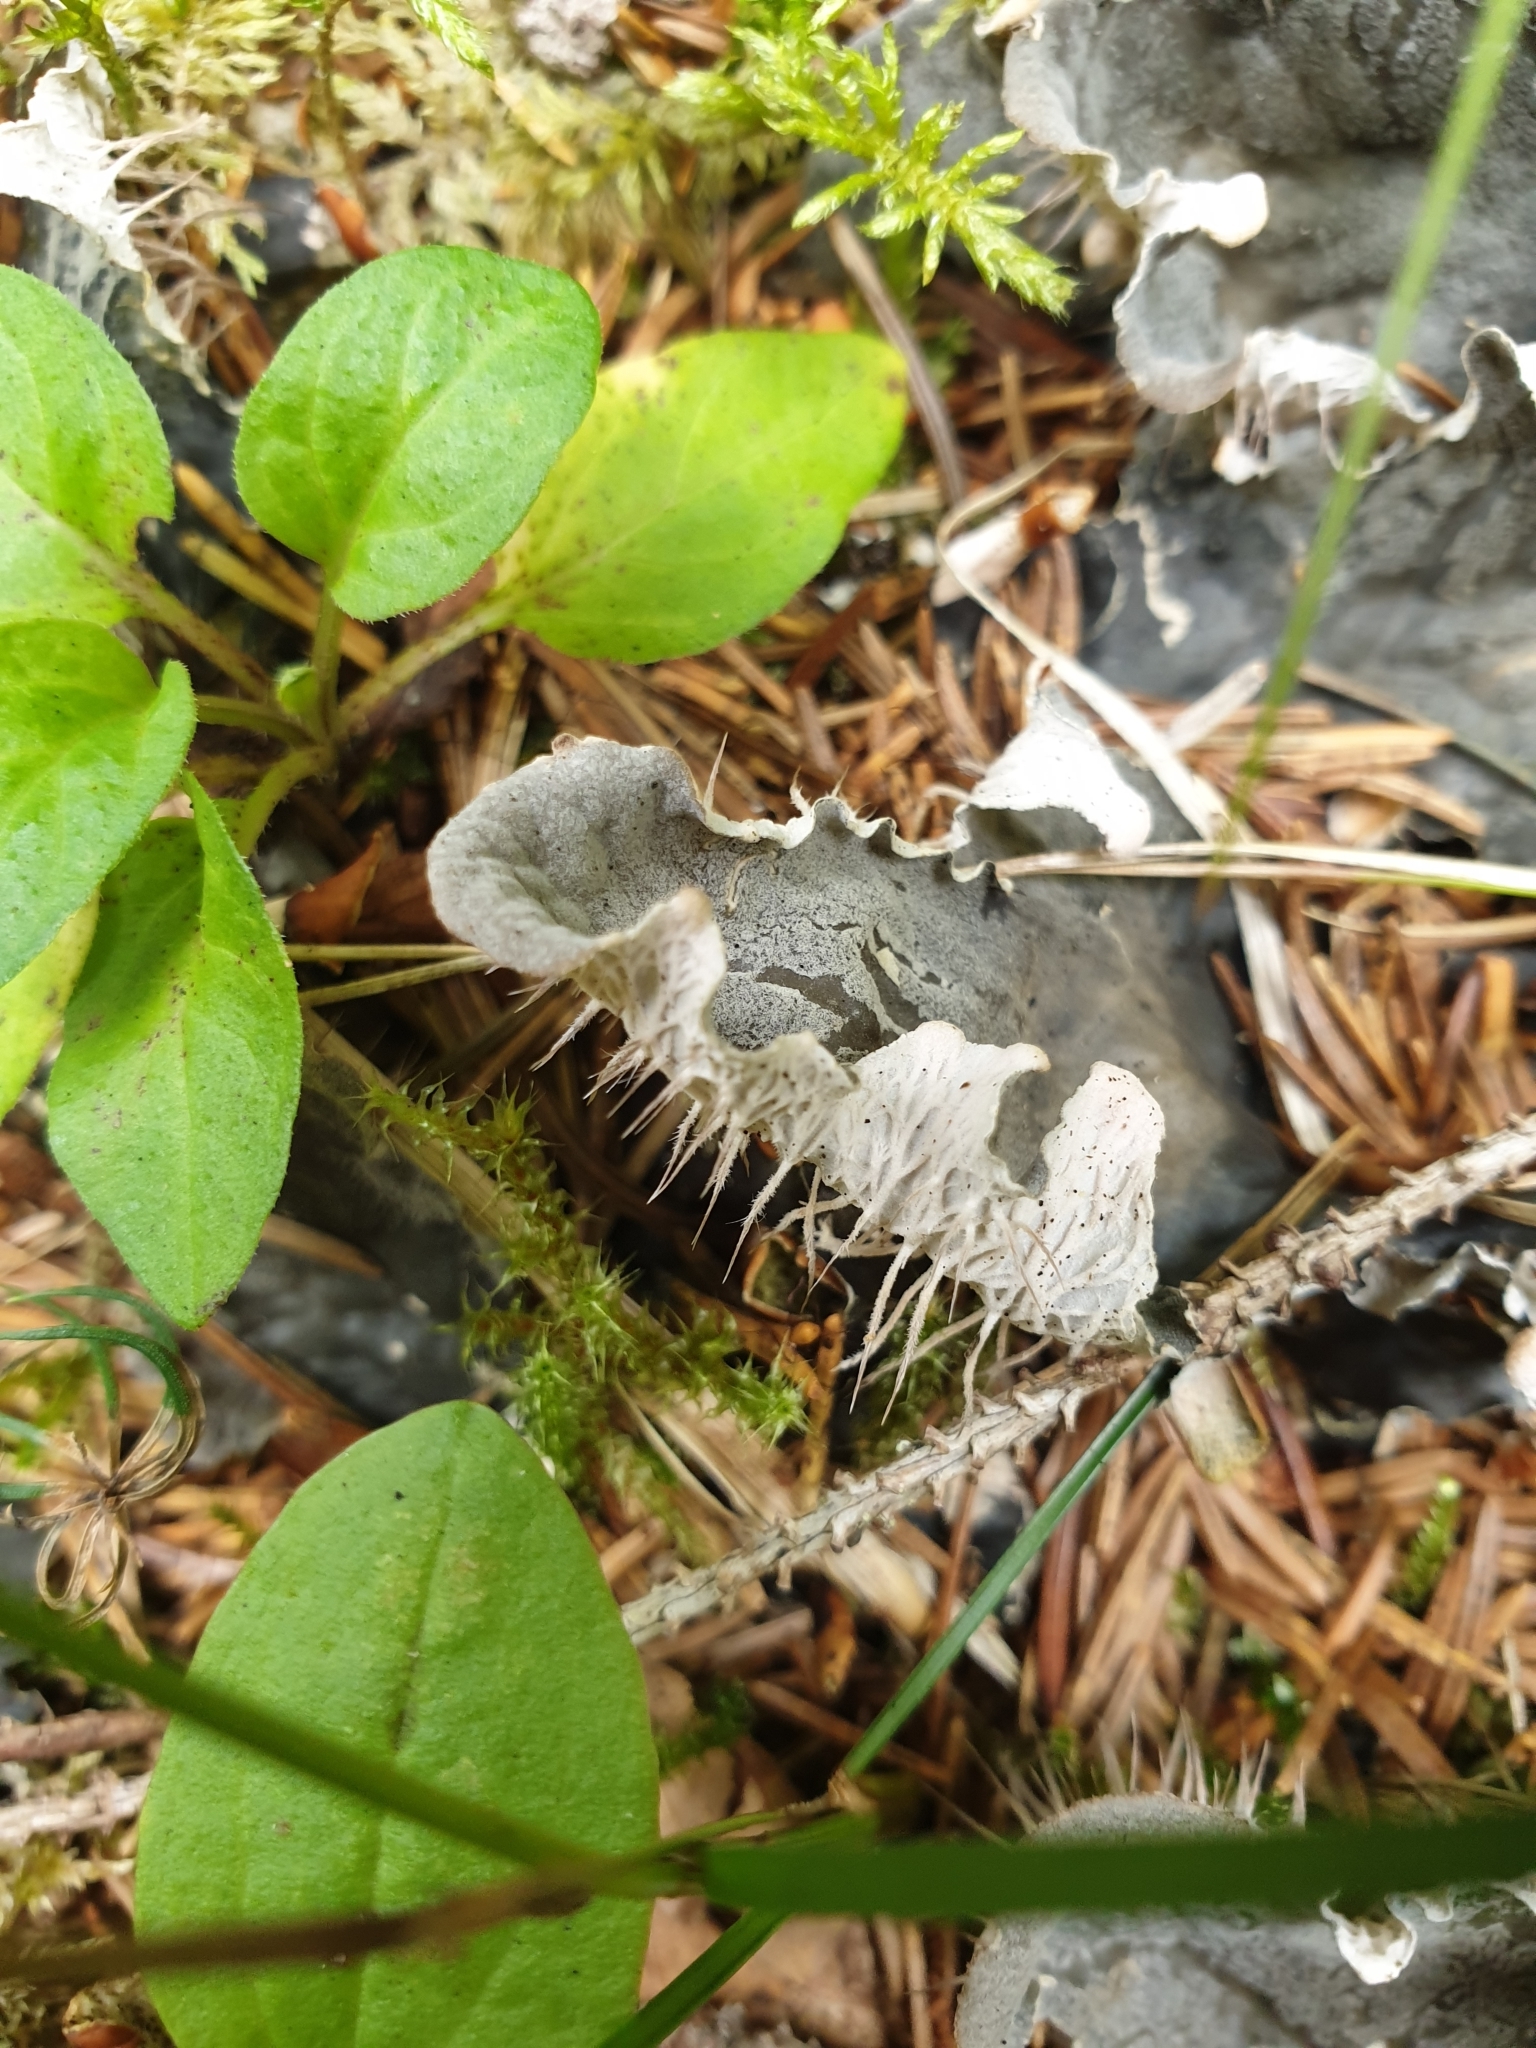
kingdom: Fungi
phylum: Ascomycota
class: Lecanoromycetes
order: Peltigerales
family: Peltigeraceae
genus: Peltigera
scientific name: Peltigera canina
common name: Dog pelt lichen
